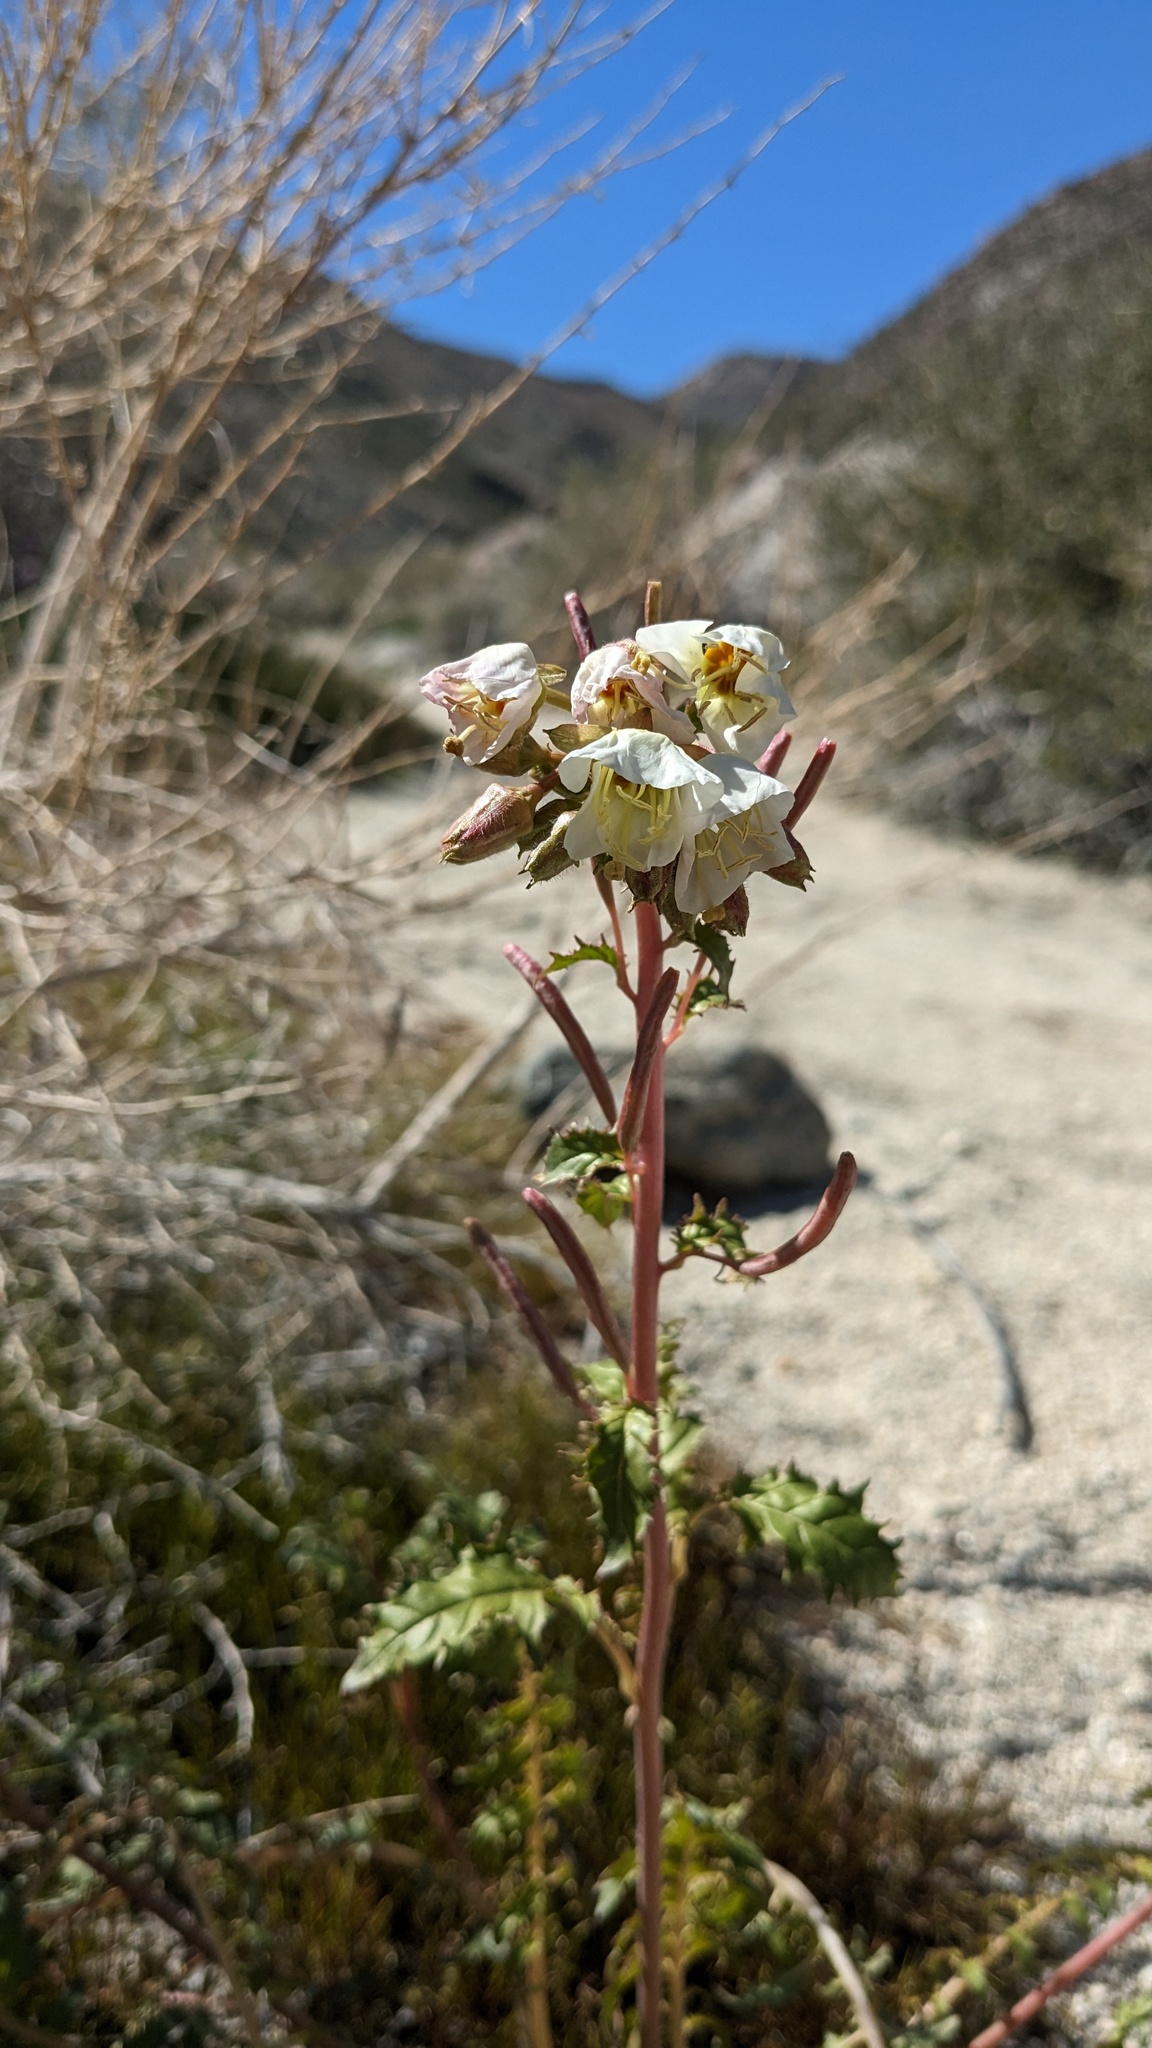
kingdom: Plantae
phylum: Tracheophyta
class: Magnoliopsida
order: Myrtales
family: Onagraceae
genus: Chylismia
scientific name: Chylismia claviformis
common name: Browneyes
